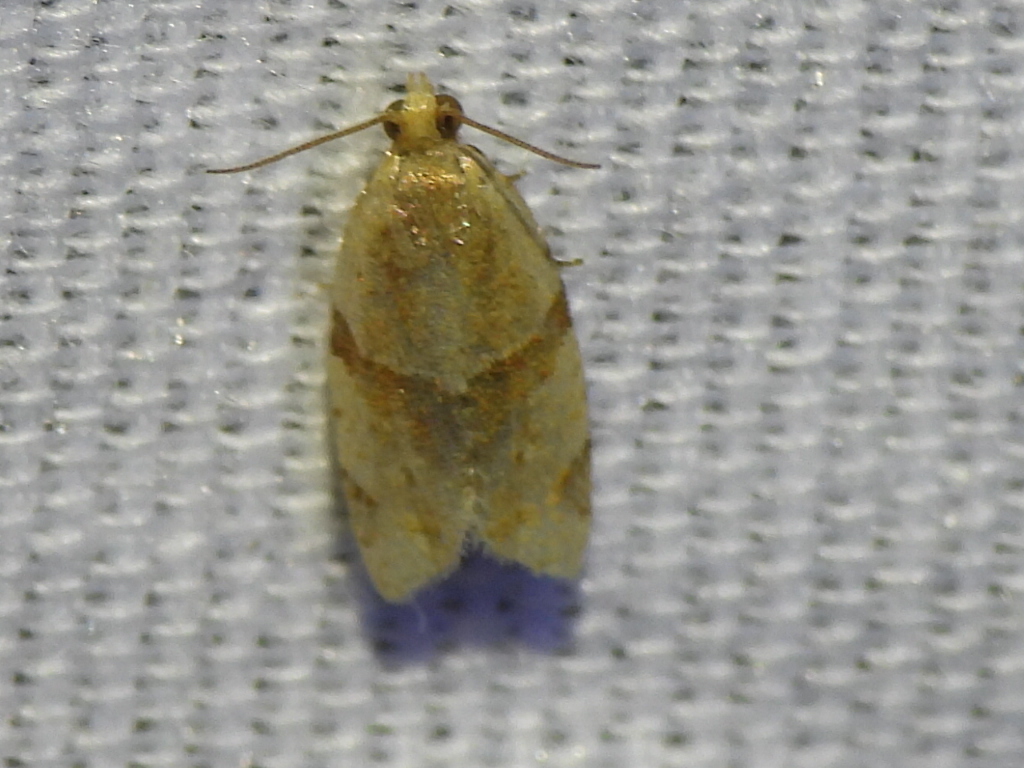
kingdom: Animalia
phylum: Arthropoda
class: Insecta
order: Lepidoptera
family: Tortricidae
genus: Clepsis
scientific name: Clepsis peritana
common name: Garden tortrix
